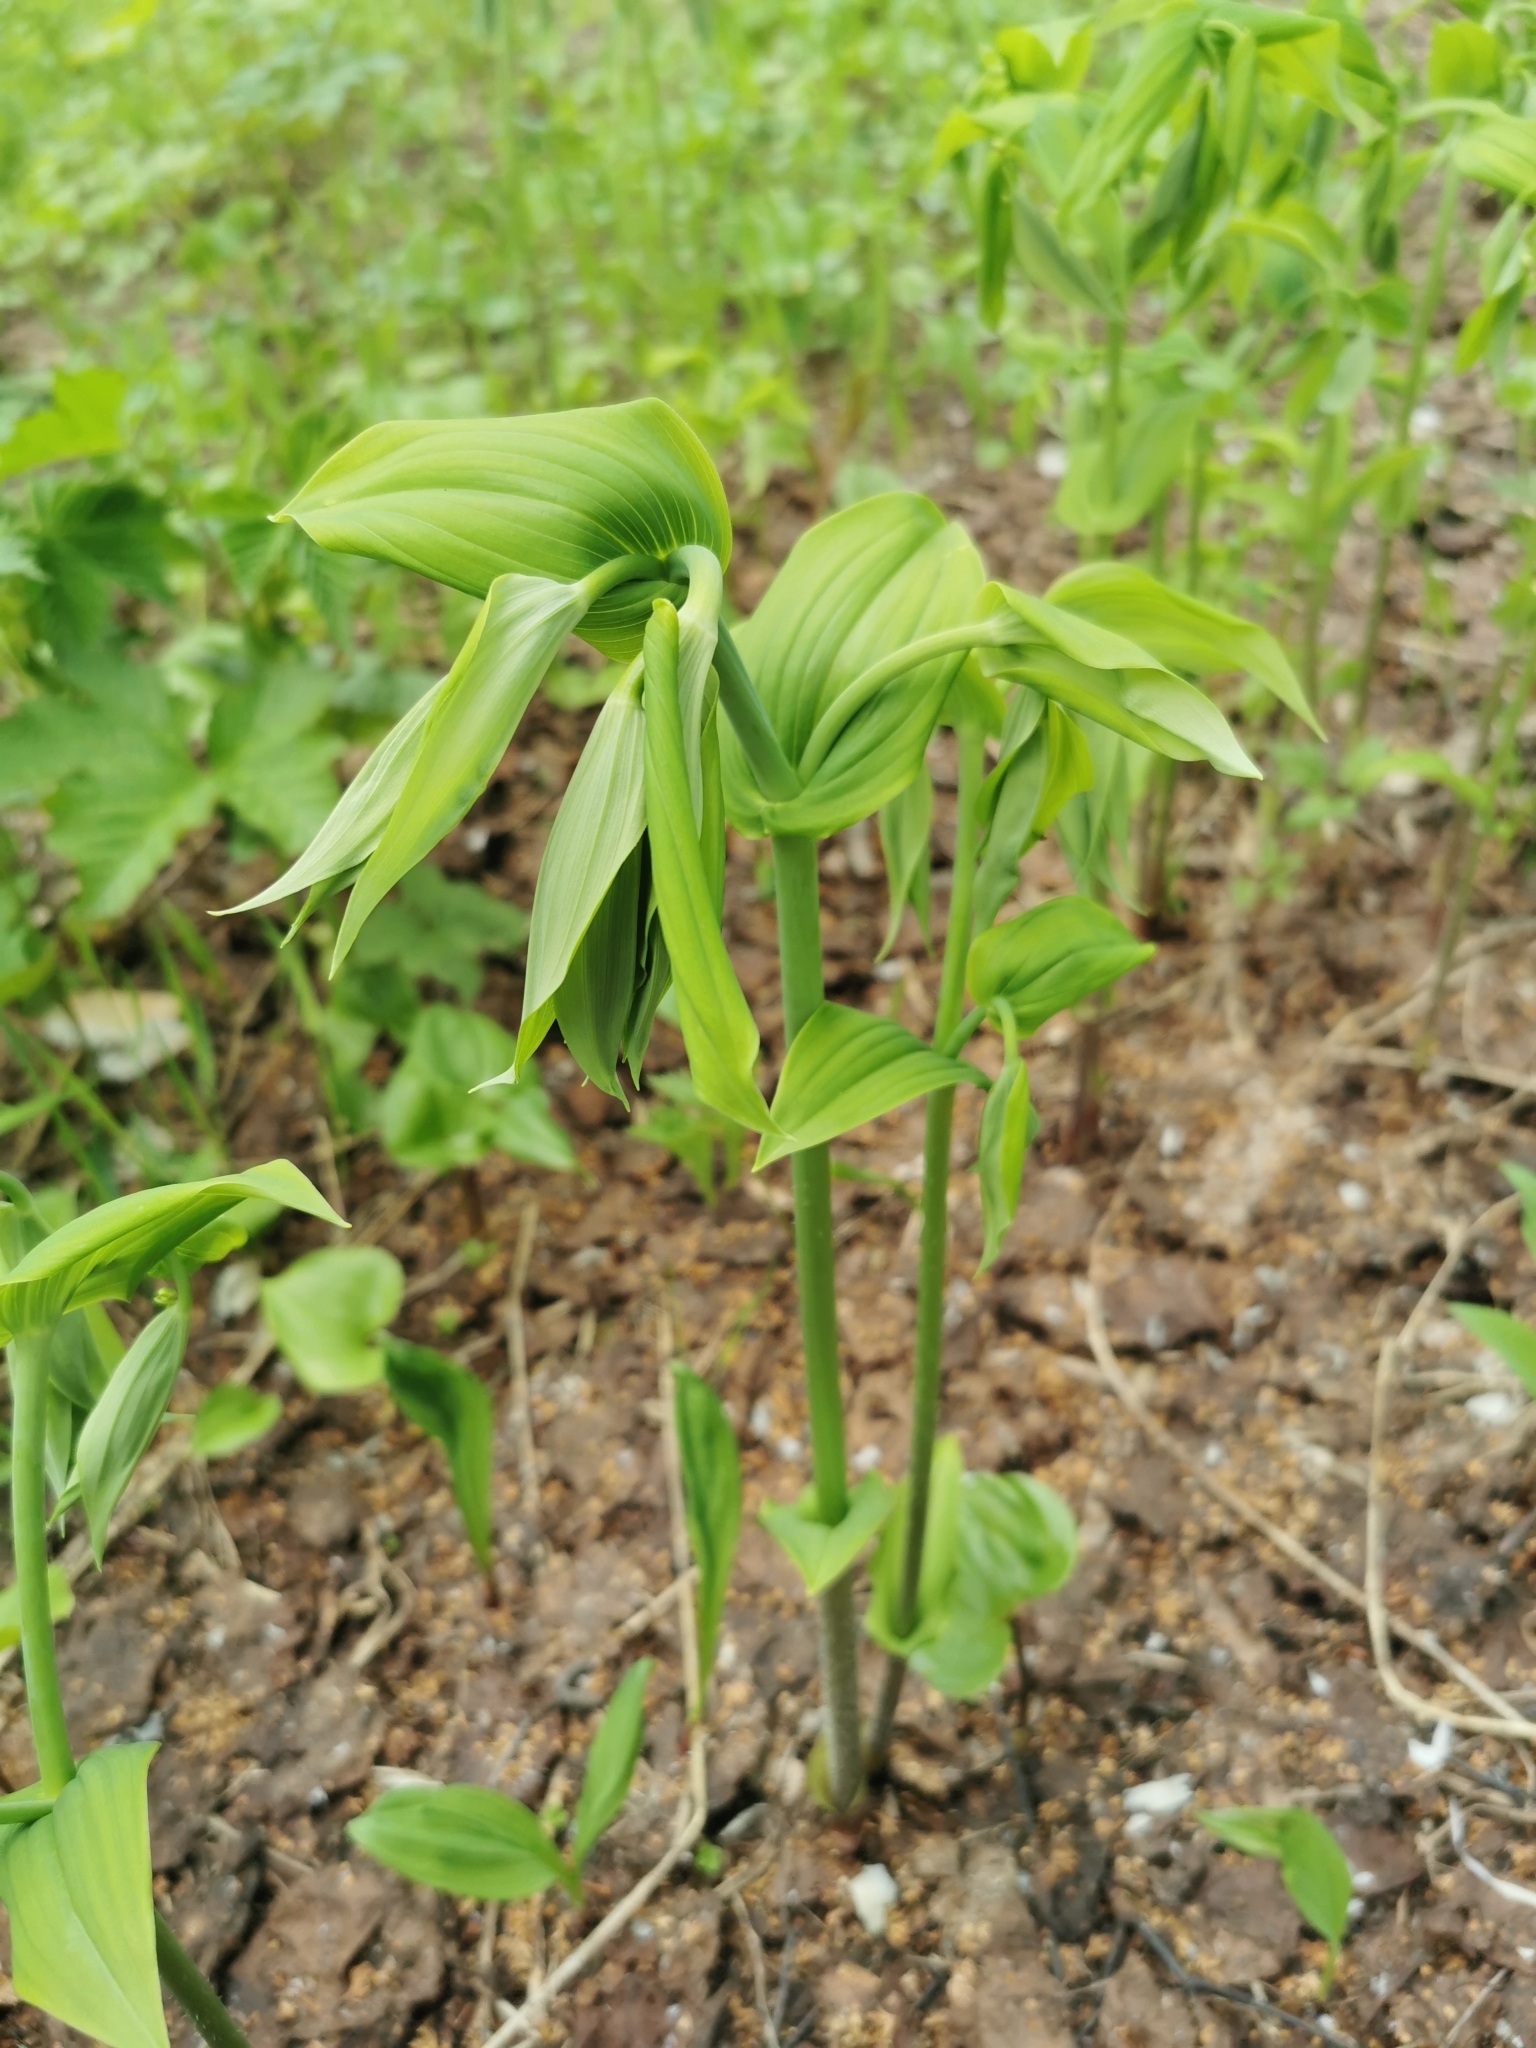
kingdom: Plantae
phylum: Tracheophyta
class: Liliopsida
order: Liliales
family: Liliaceae
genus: Streptopus
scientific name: Streptopus amplexifolius
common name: Clasp twisted stalk
